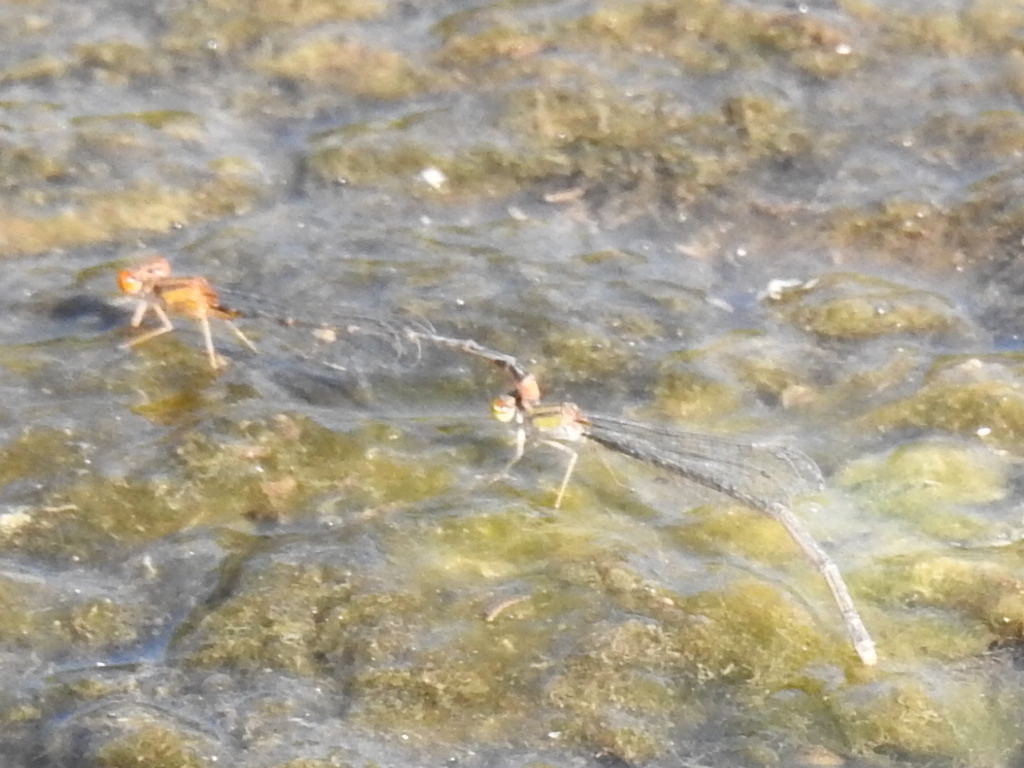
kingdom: Animalia
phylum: Arthropoda
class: Insecta
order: Odonata
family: Coenagrionidae
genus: Enallagma
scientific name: Enallagma signatum
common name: Orange bluet
